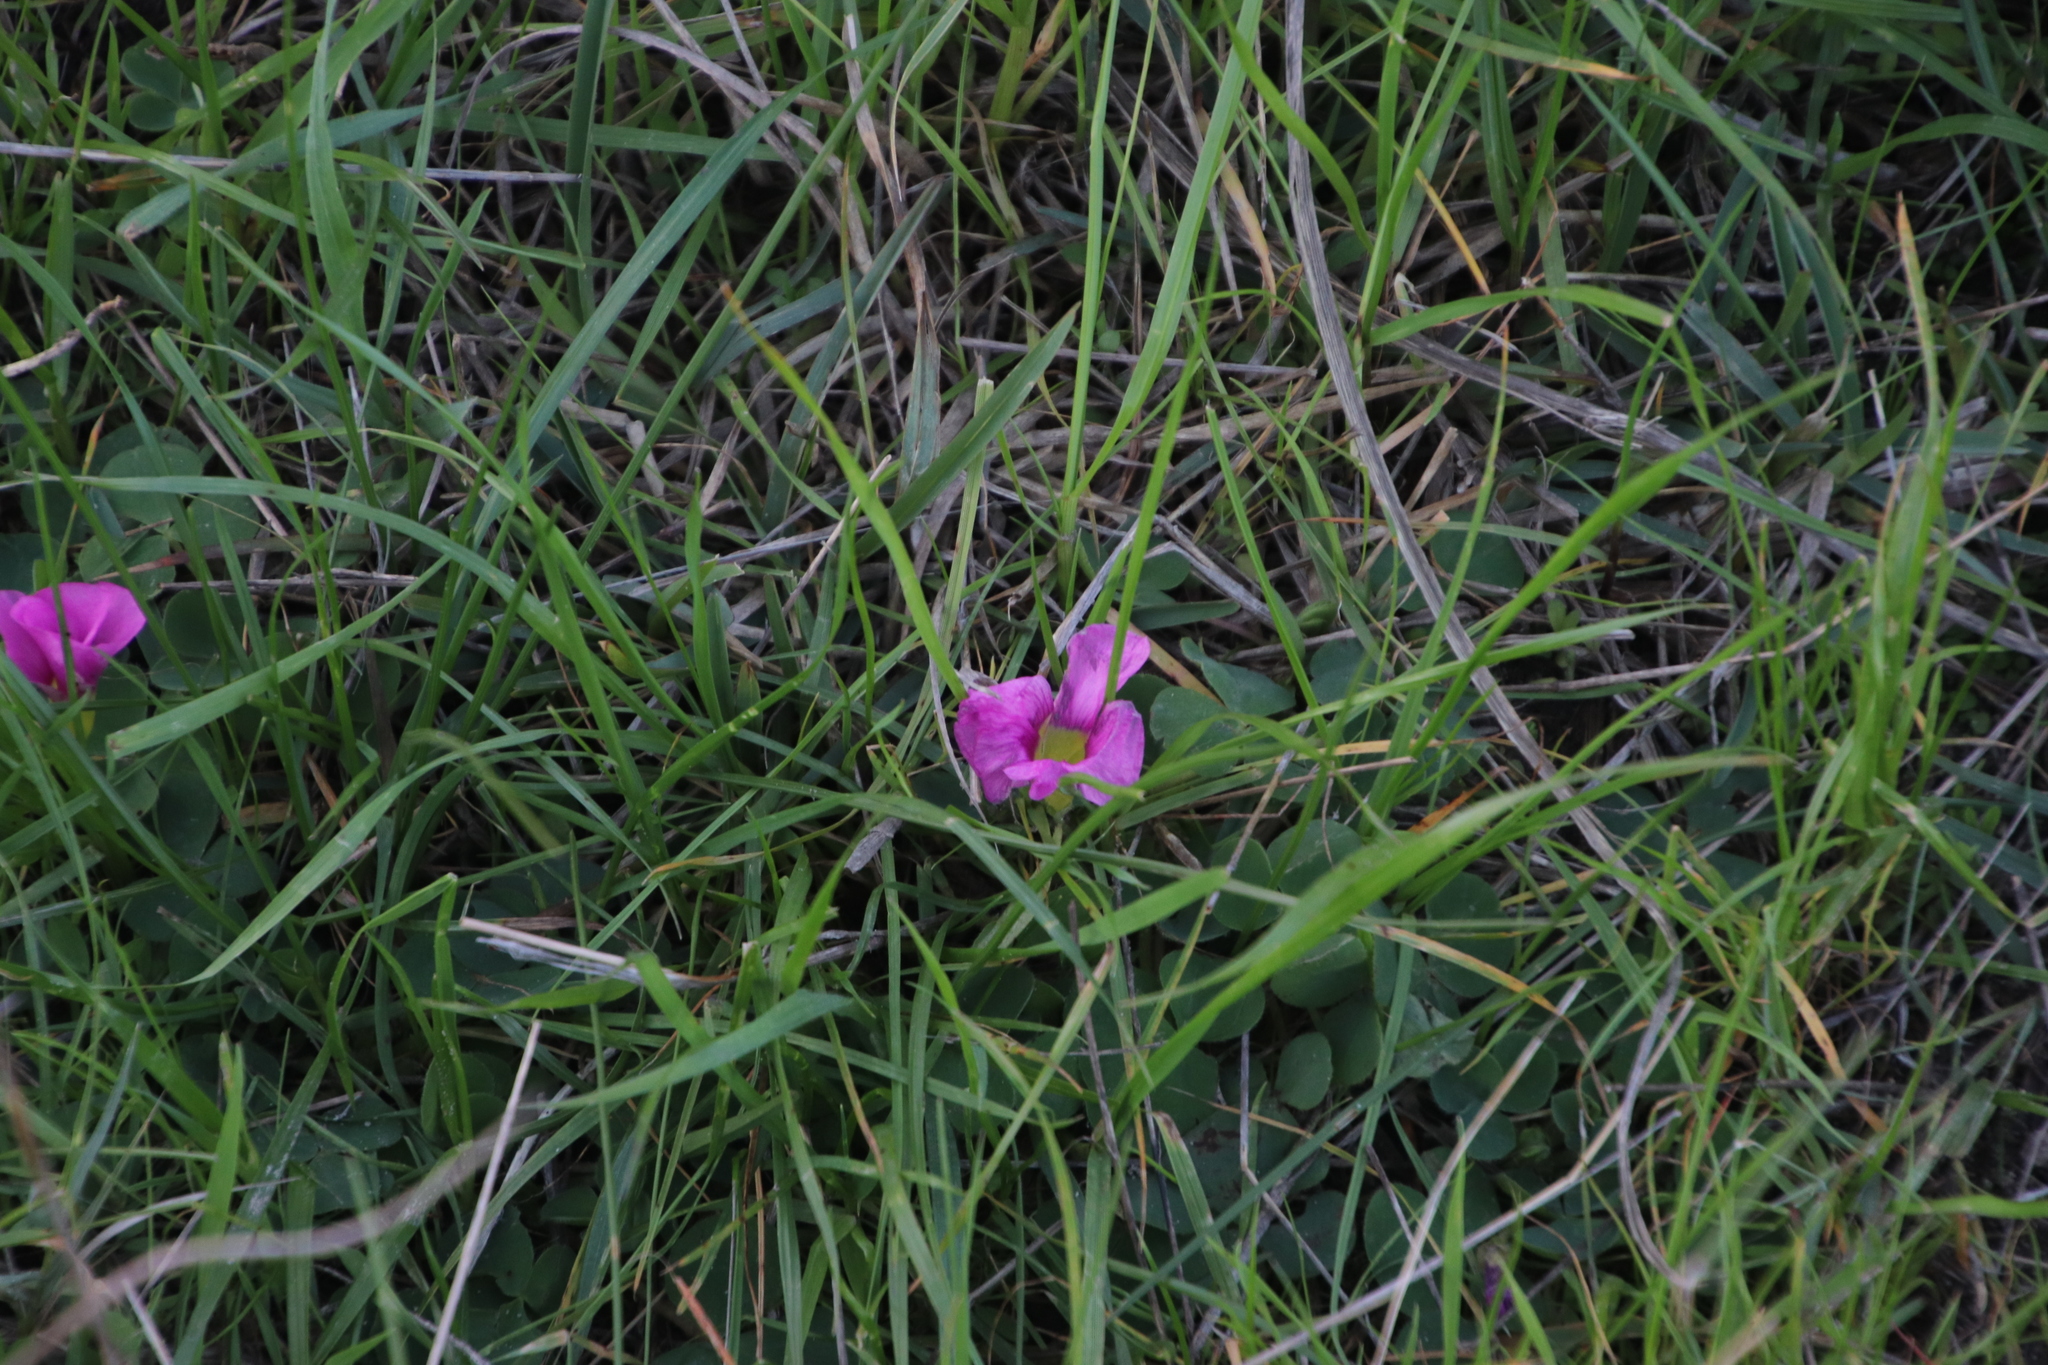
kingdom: Plantae
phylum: Tracheophyta
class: Magnoliopsida
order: Oxalidales
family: Oxalidaceae
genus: Oxalis
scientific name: Oxalis purpurea
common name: Purple woodsorrel
